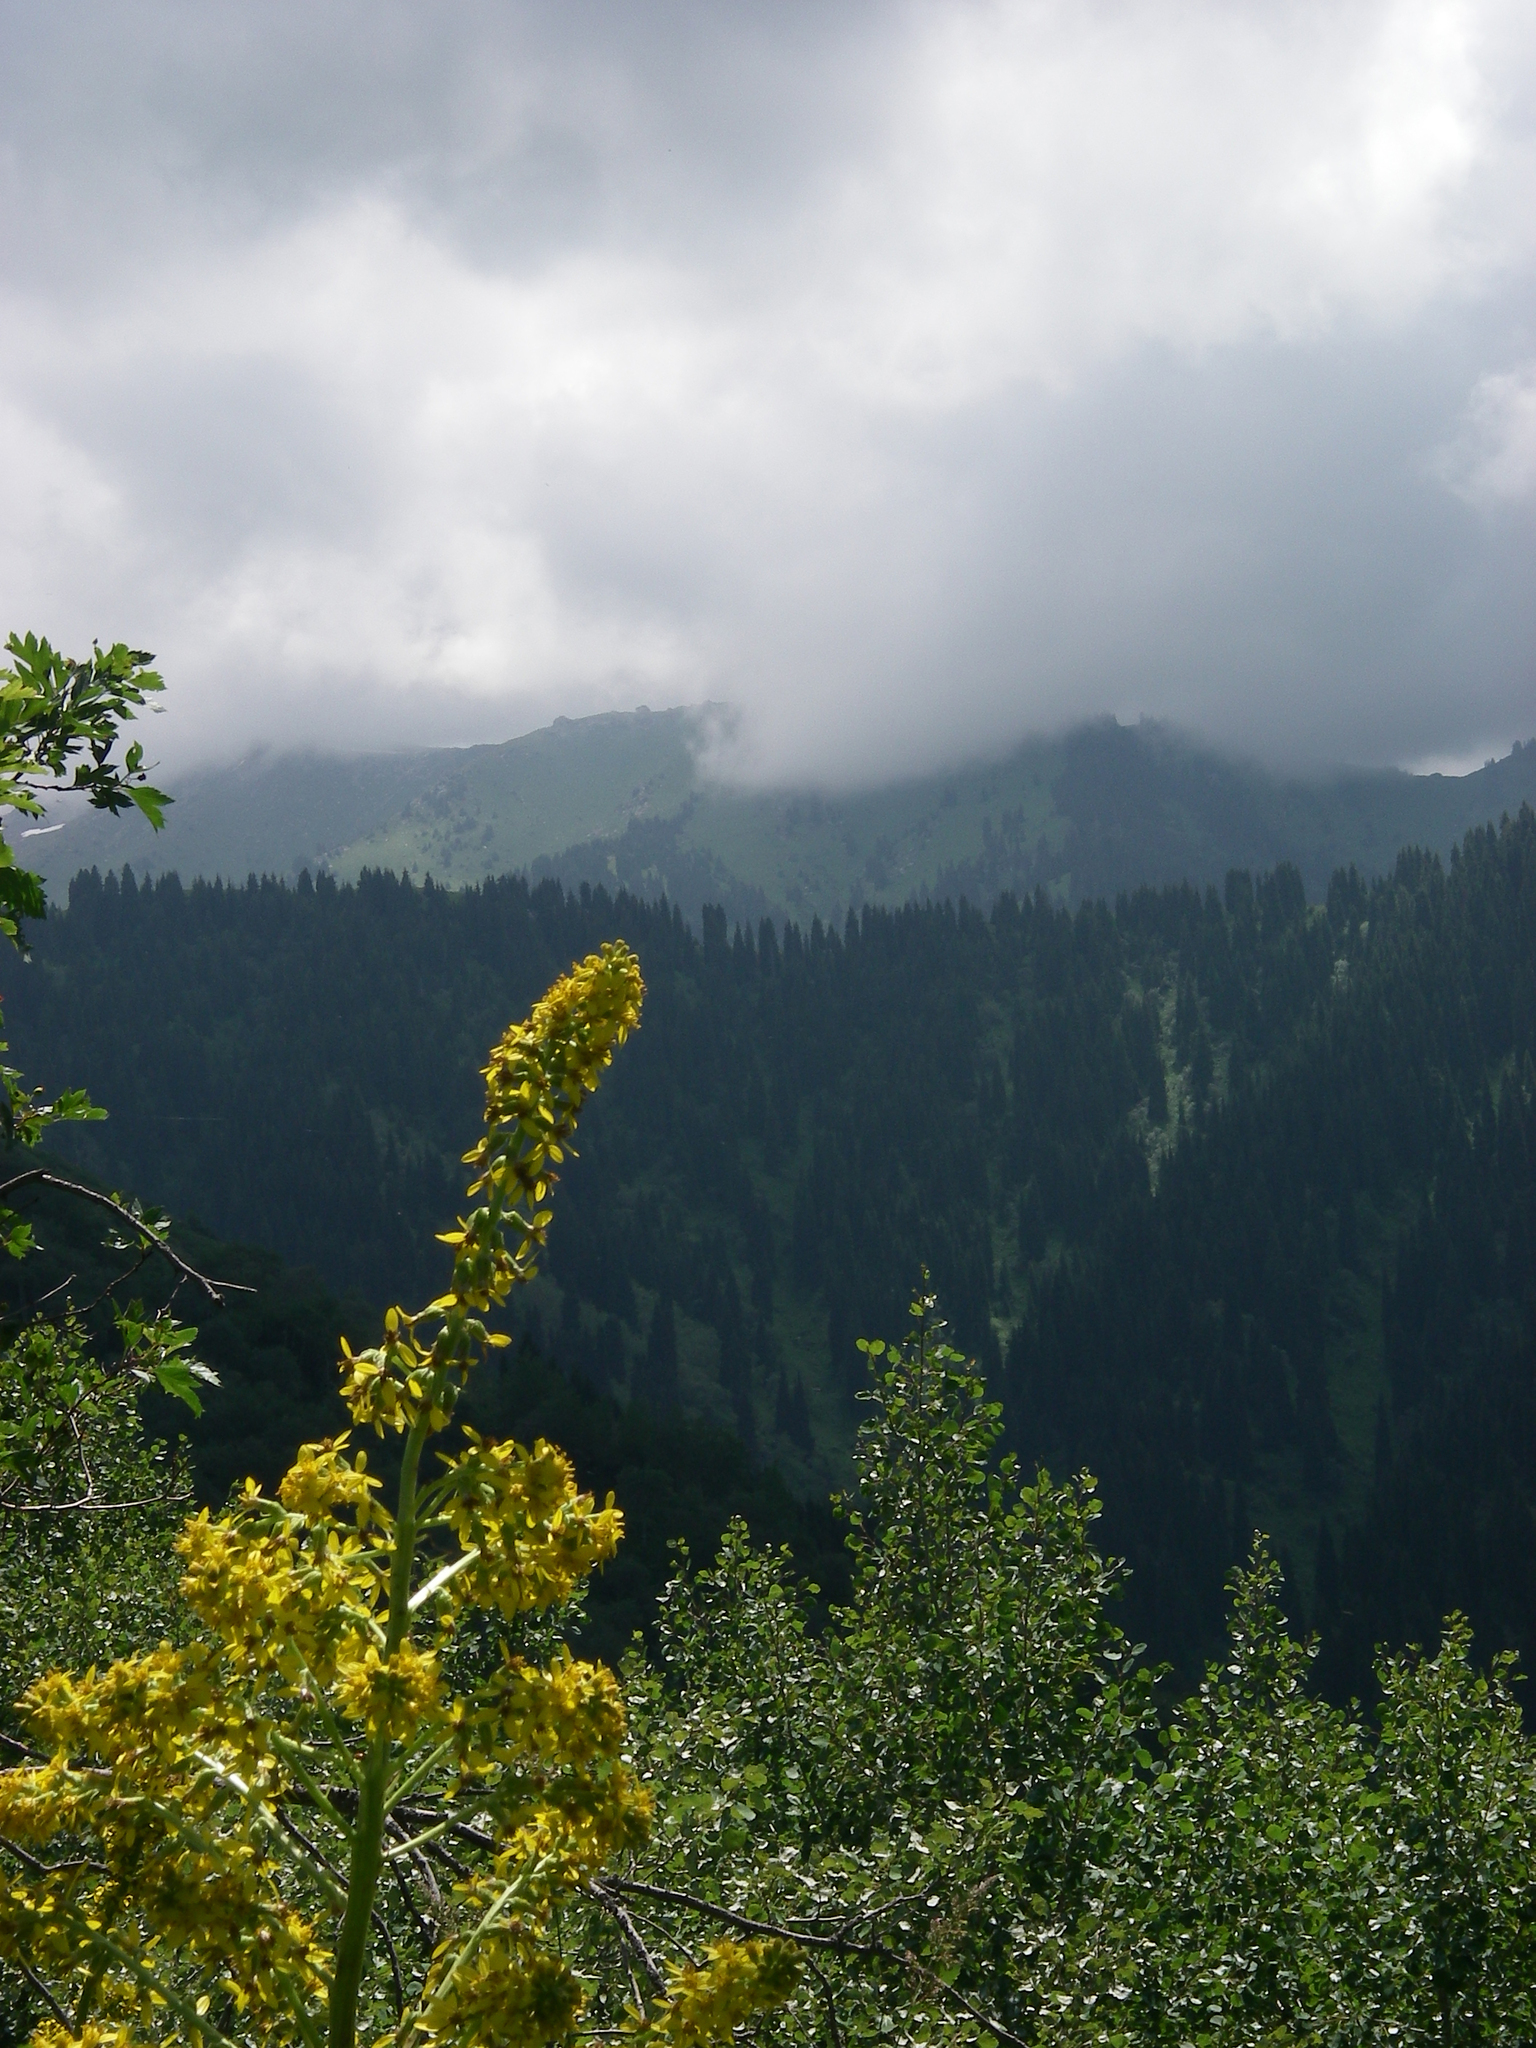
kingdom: Plantae
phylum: Tracheophyta
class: Pinopsida
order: Pinales
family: Pinaceae
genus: Picea
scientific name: Picea schrenkiana
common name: Asian spruce
